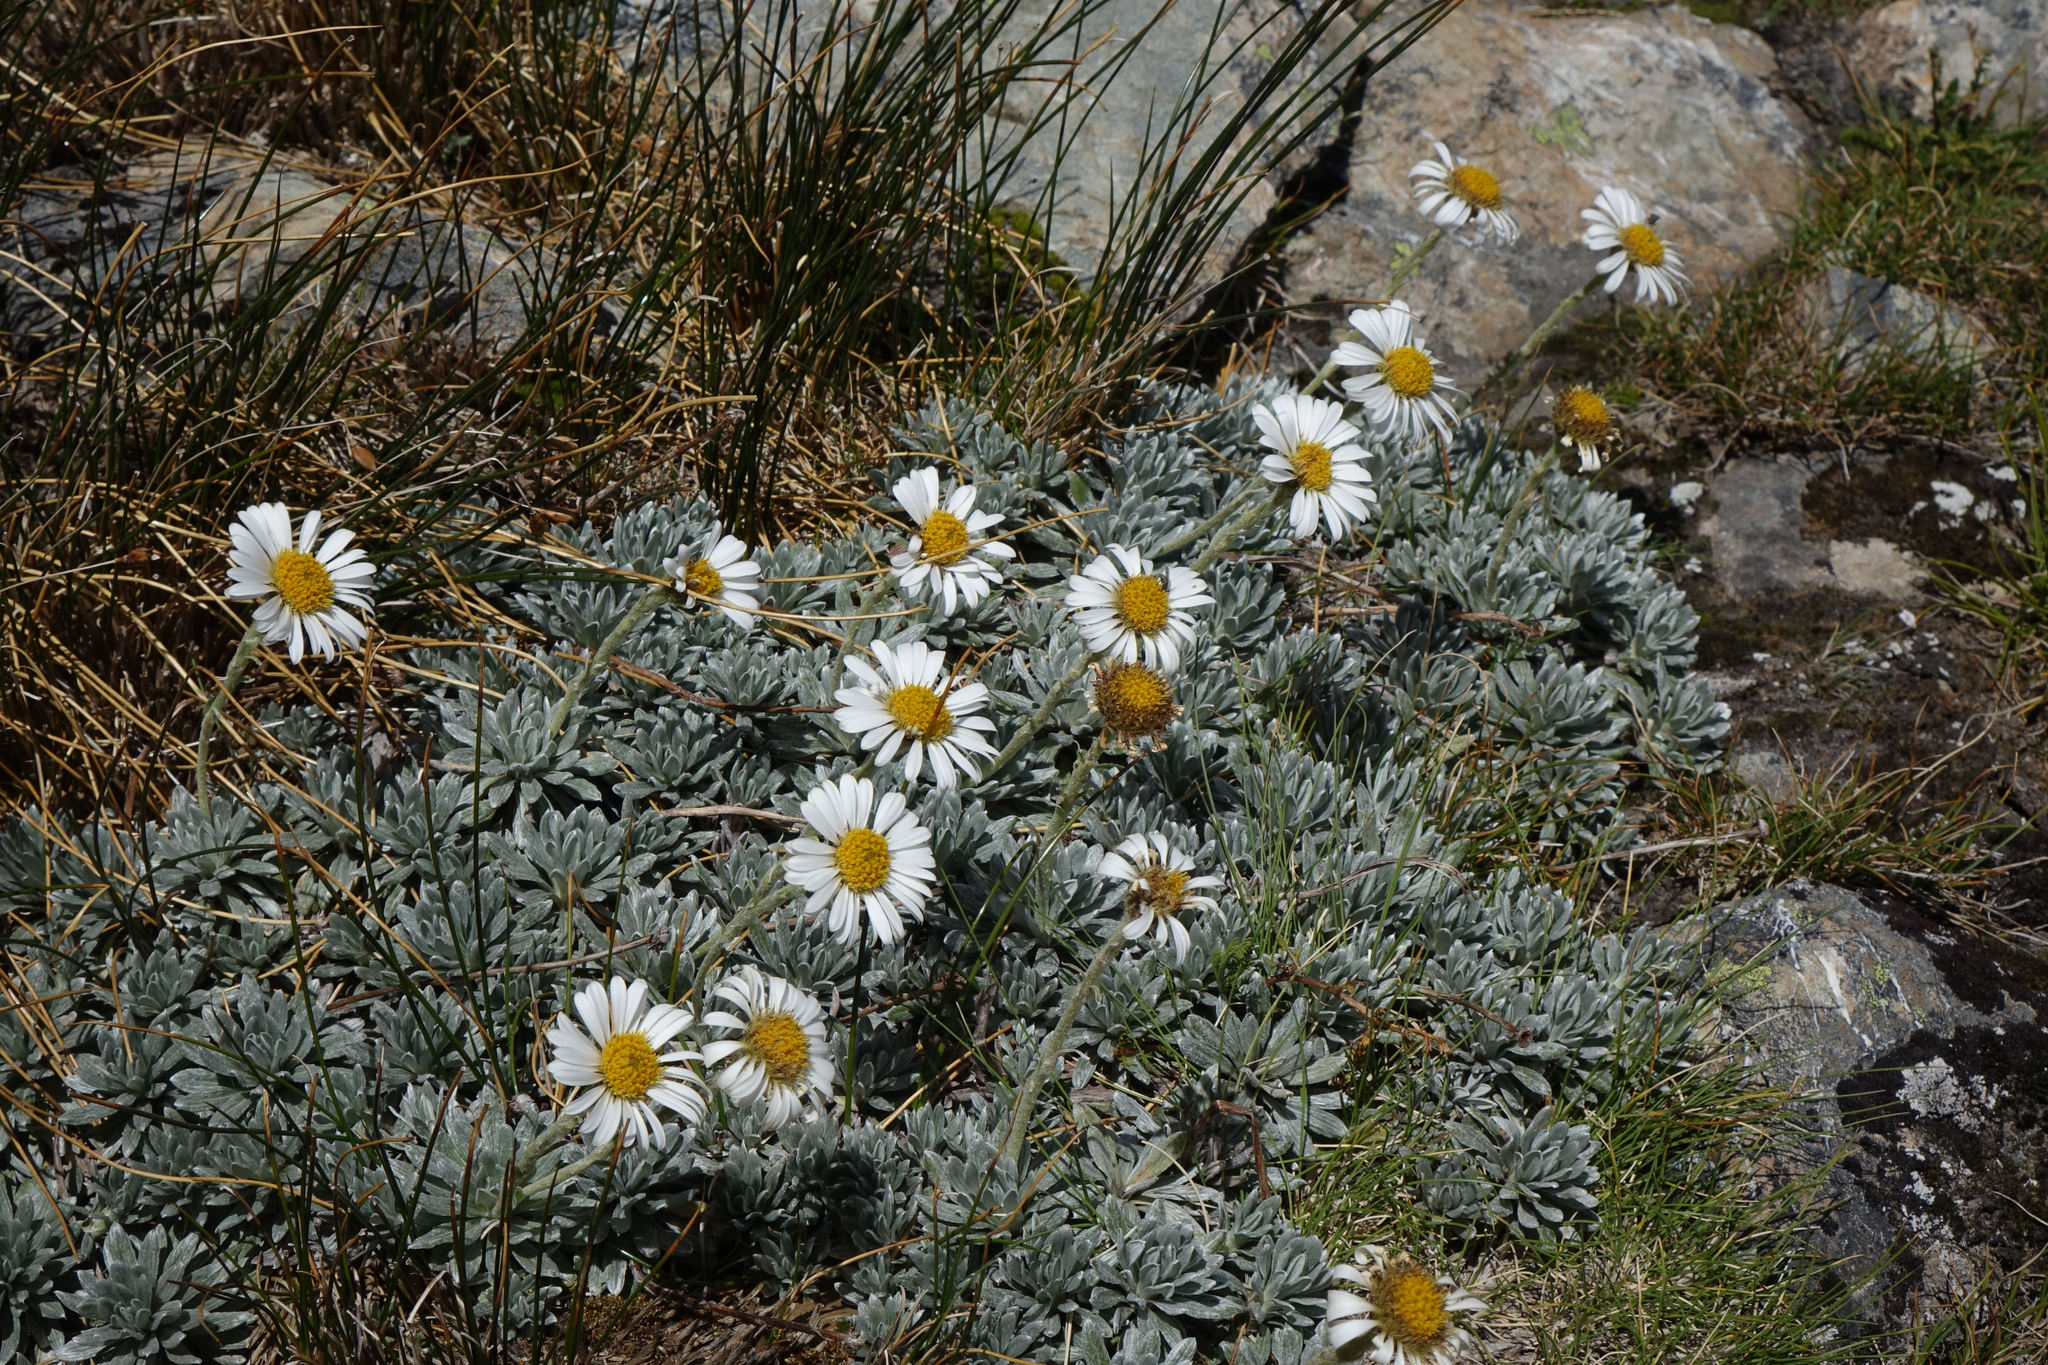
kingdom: Plantae
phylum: Tracheophyta
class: Magnoliopsida
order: Asterales
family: Asteraceae
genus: Celmisia
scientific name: Celmisia hectorii
